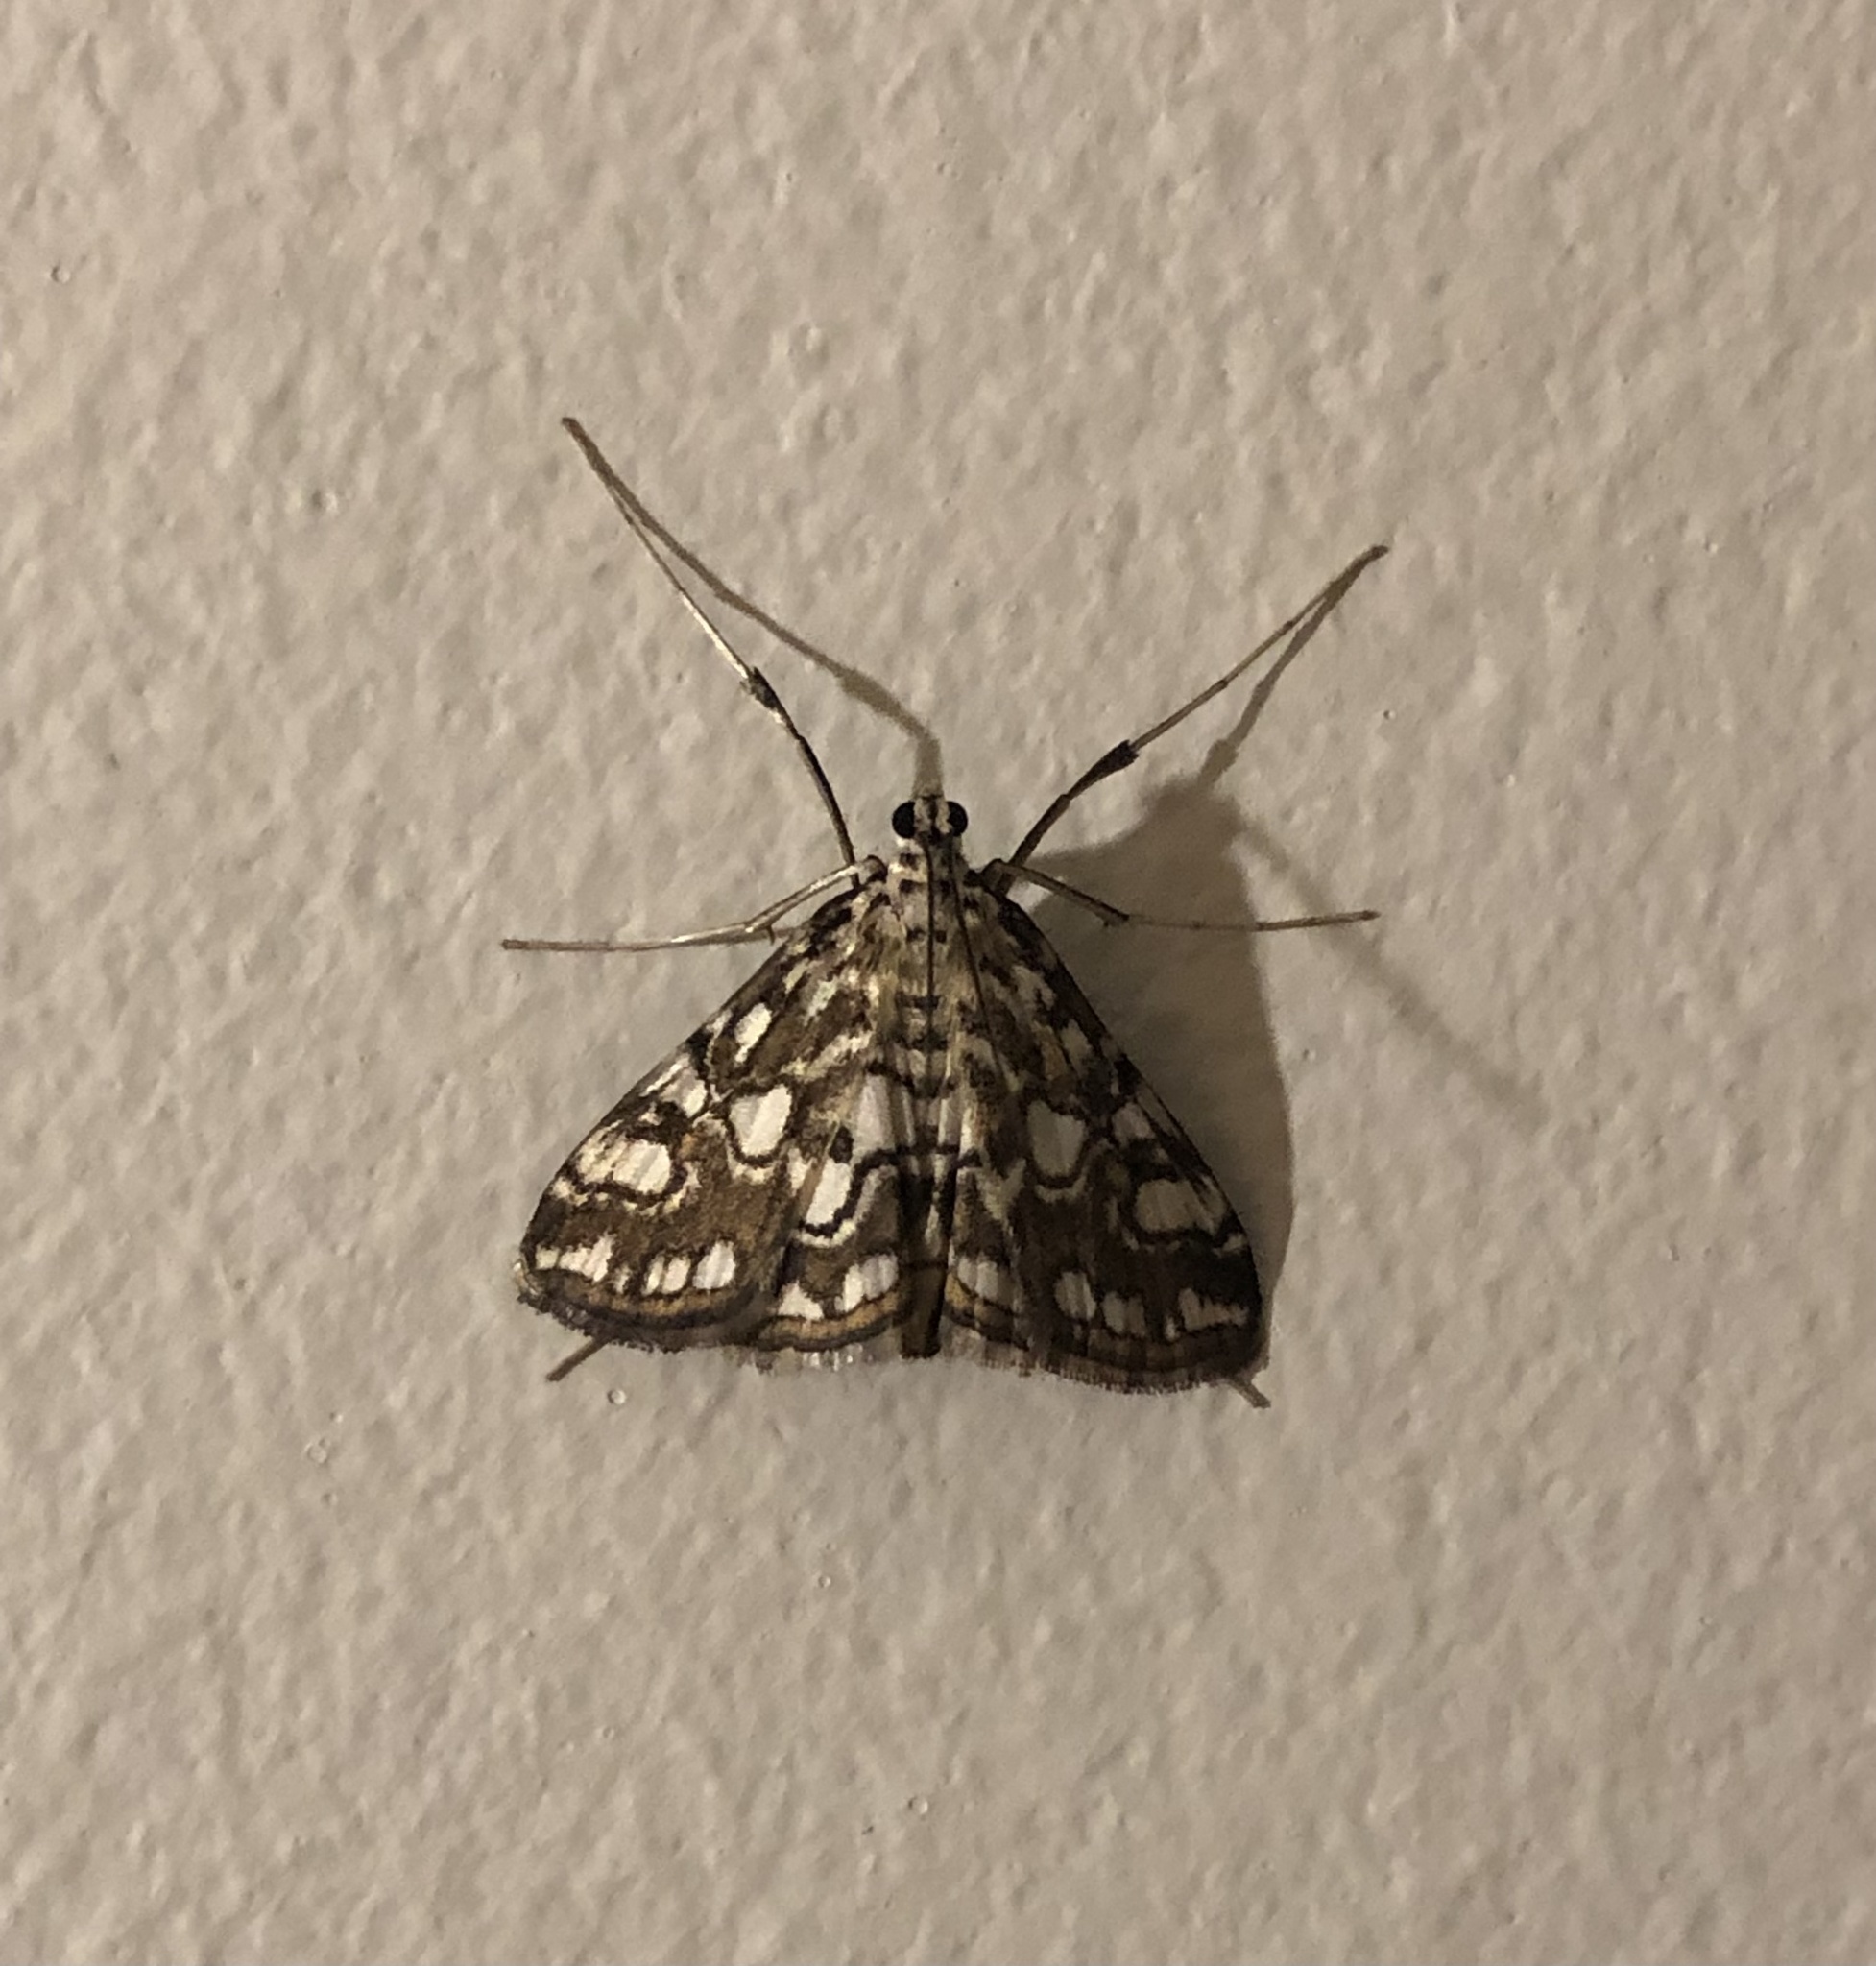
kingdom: Animalia
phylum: Arthropoda
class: Insecta
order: Lepidoptera
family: Crambidae
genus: Elophila
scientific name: Elophila nymphaeata
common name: Brown china-mark
